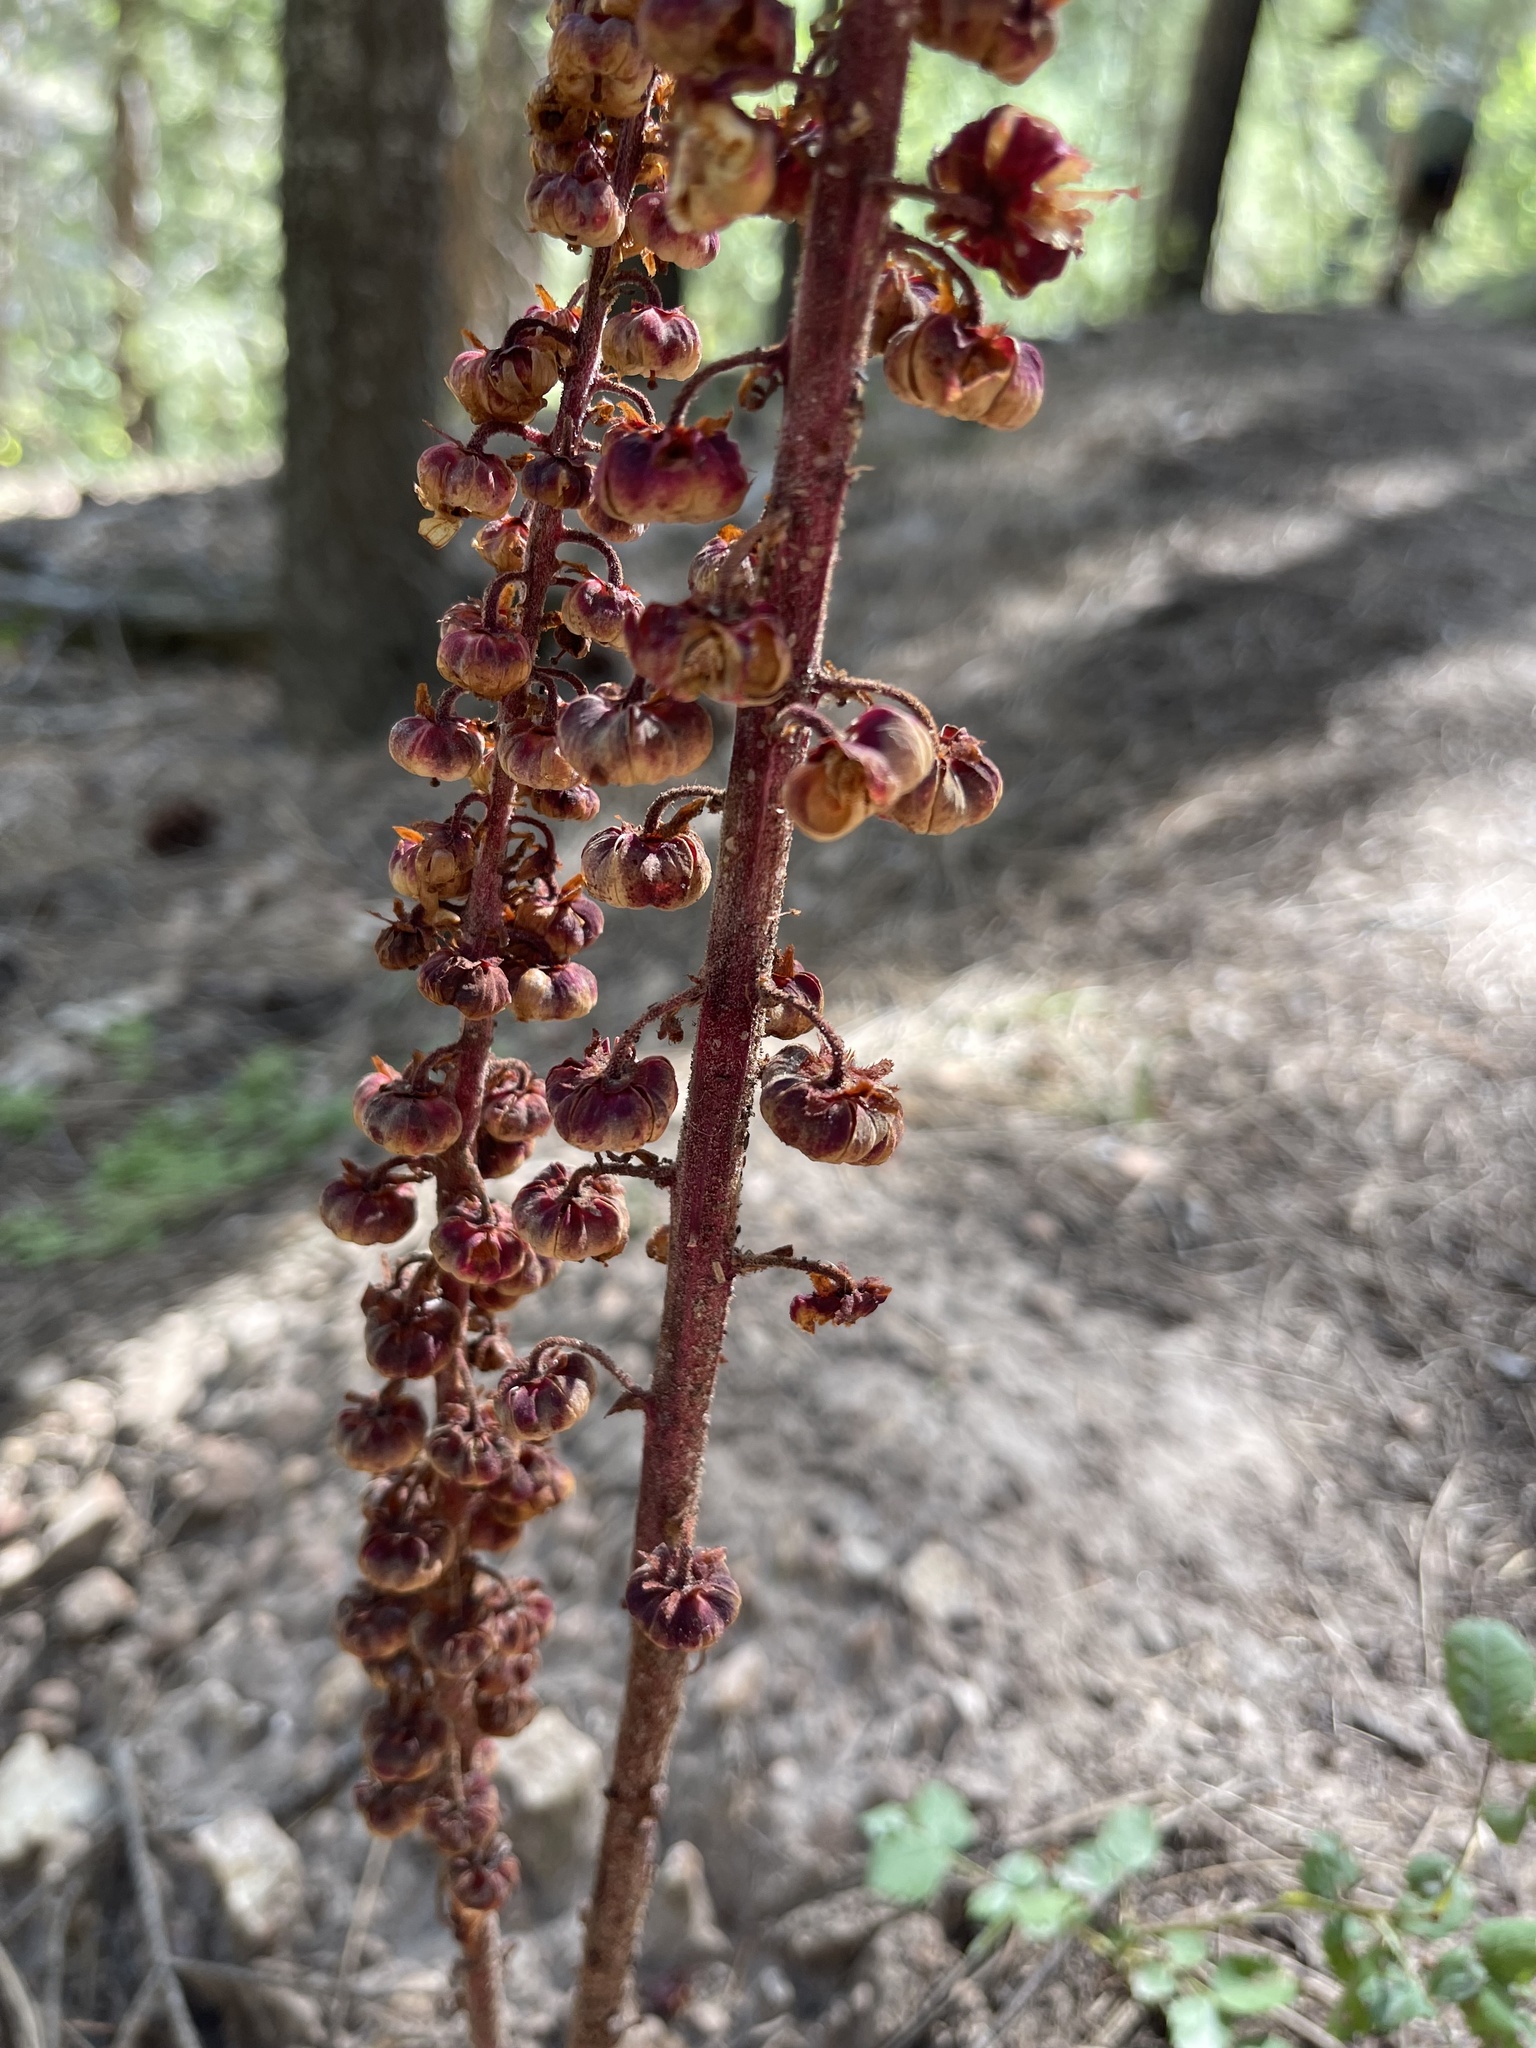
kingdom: Plantae
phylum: Tracheophyta
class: Magnoliopsida
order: Ericales
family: Ericaceae
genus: Pterospora
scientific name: Pterospora andromedea
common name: Giant bird's-nest
